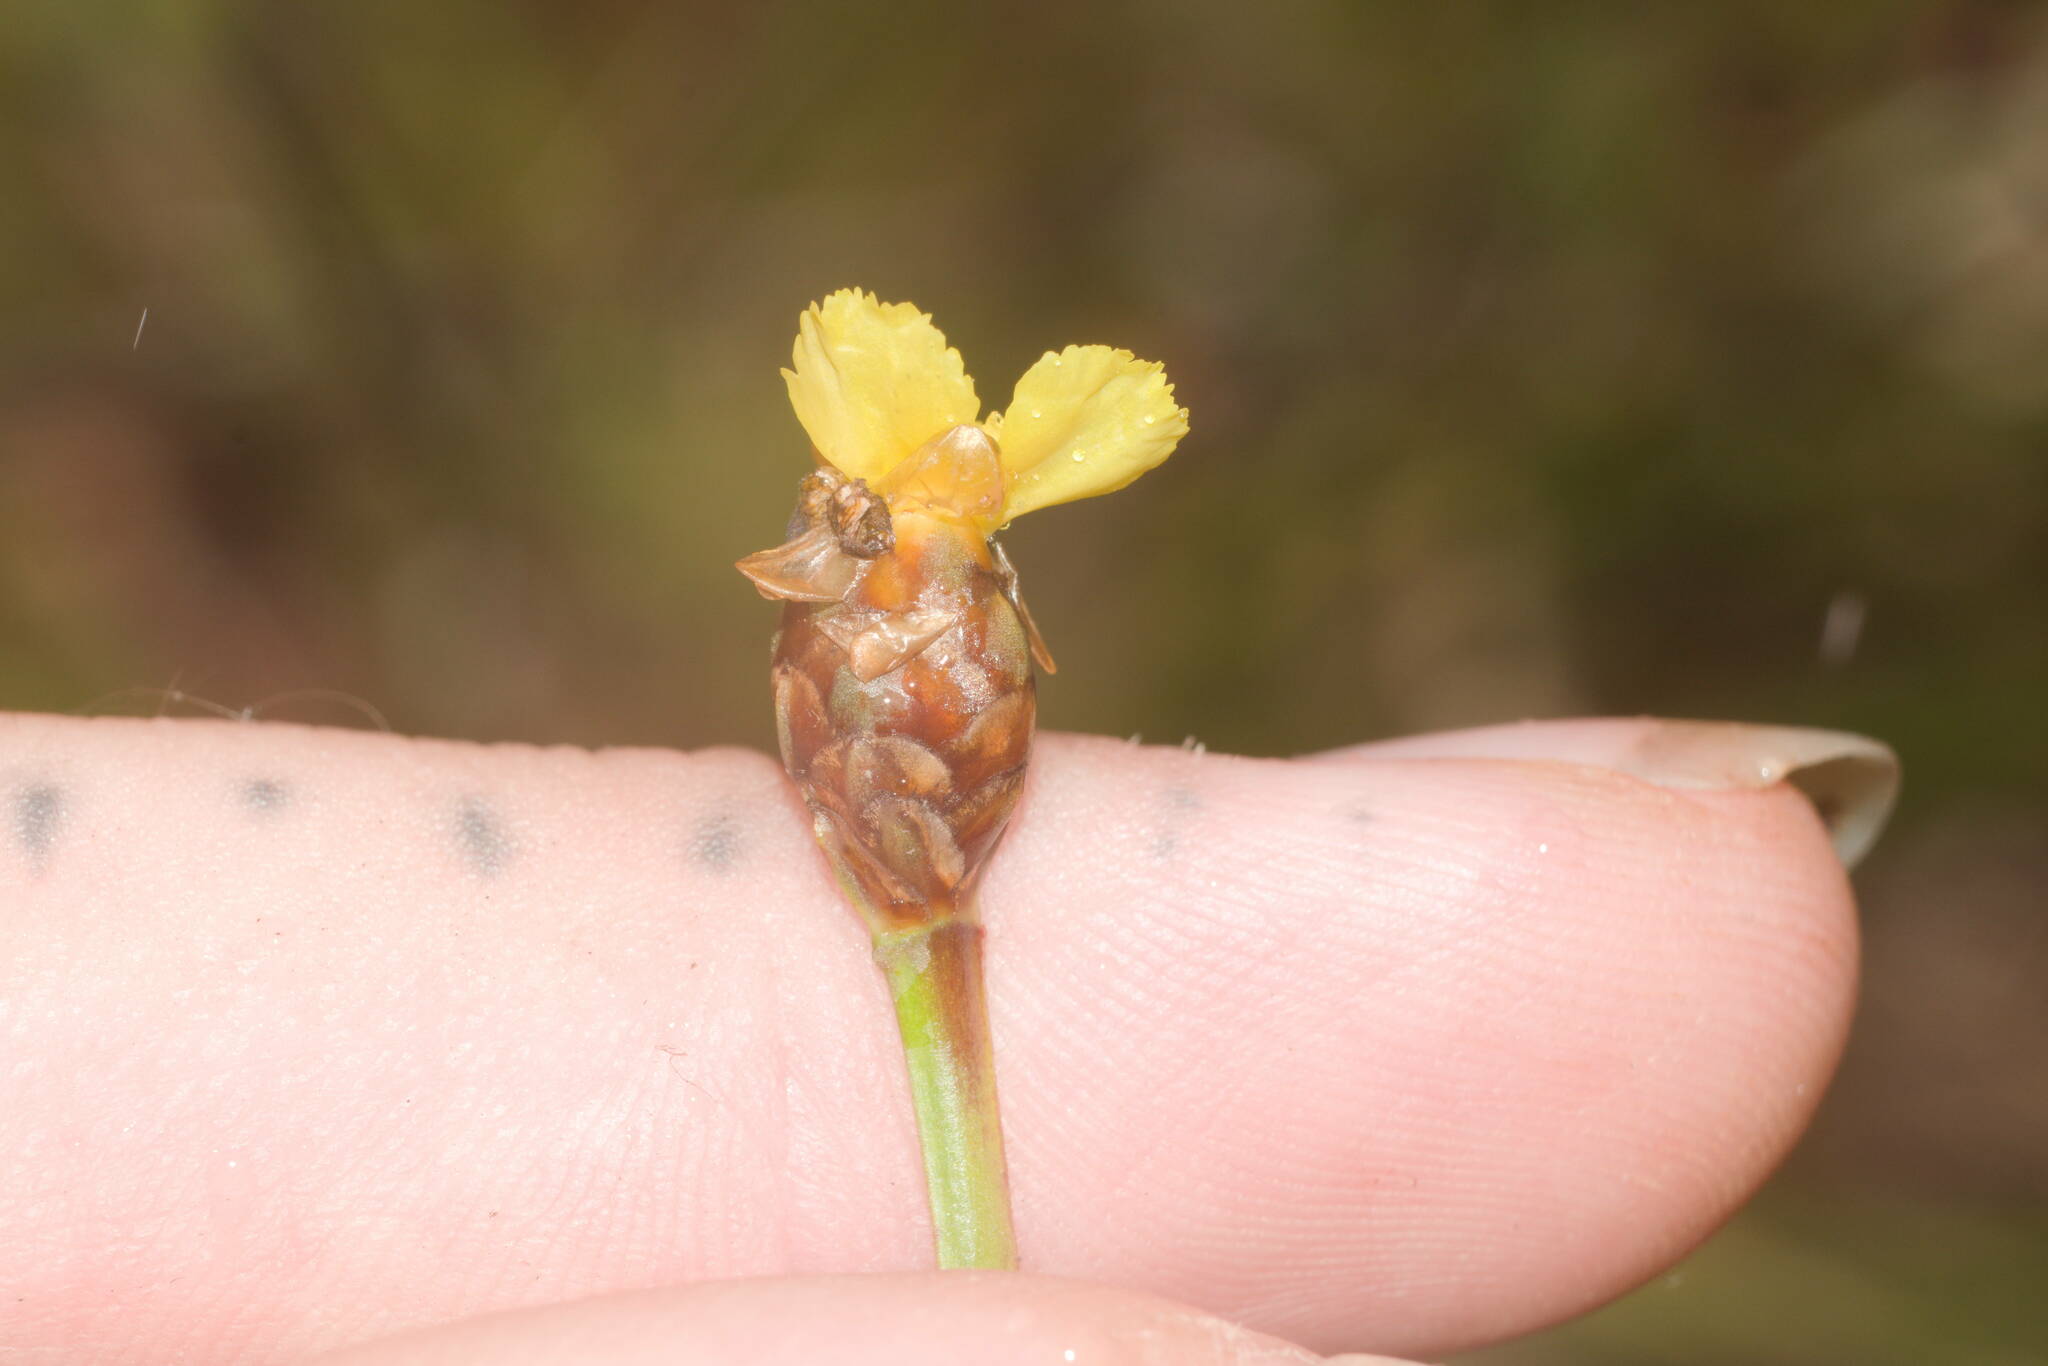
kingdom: Plantae
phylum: Tracheophyta
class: Liliopsida
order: Poales
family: Xyridaceae
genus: Xyris
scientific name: Xyris complanata
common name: Hawai'i yelloweyed grass
